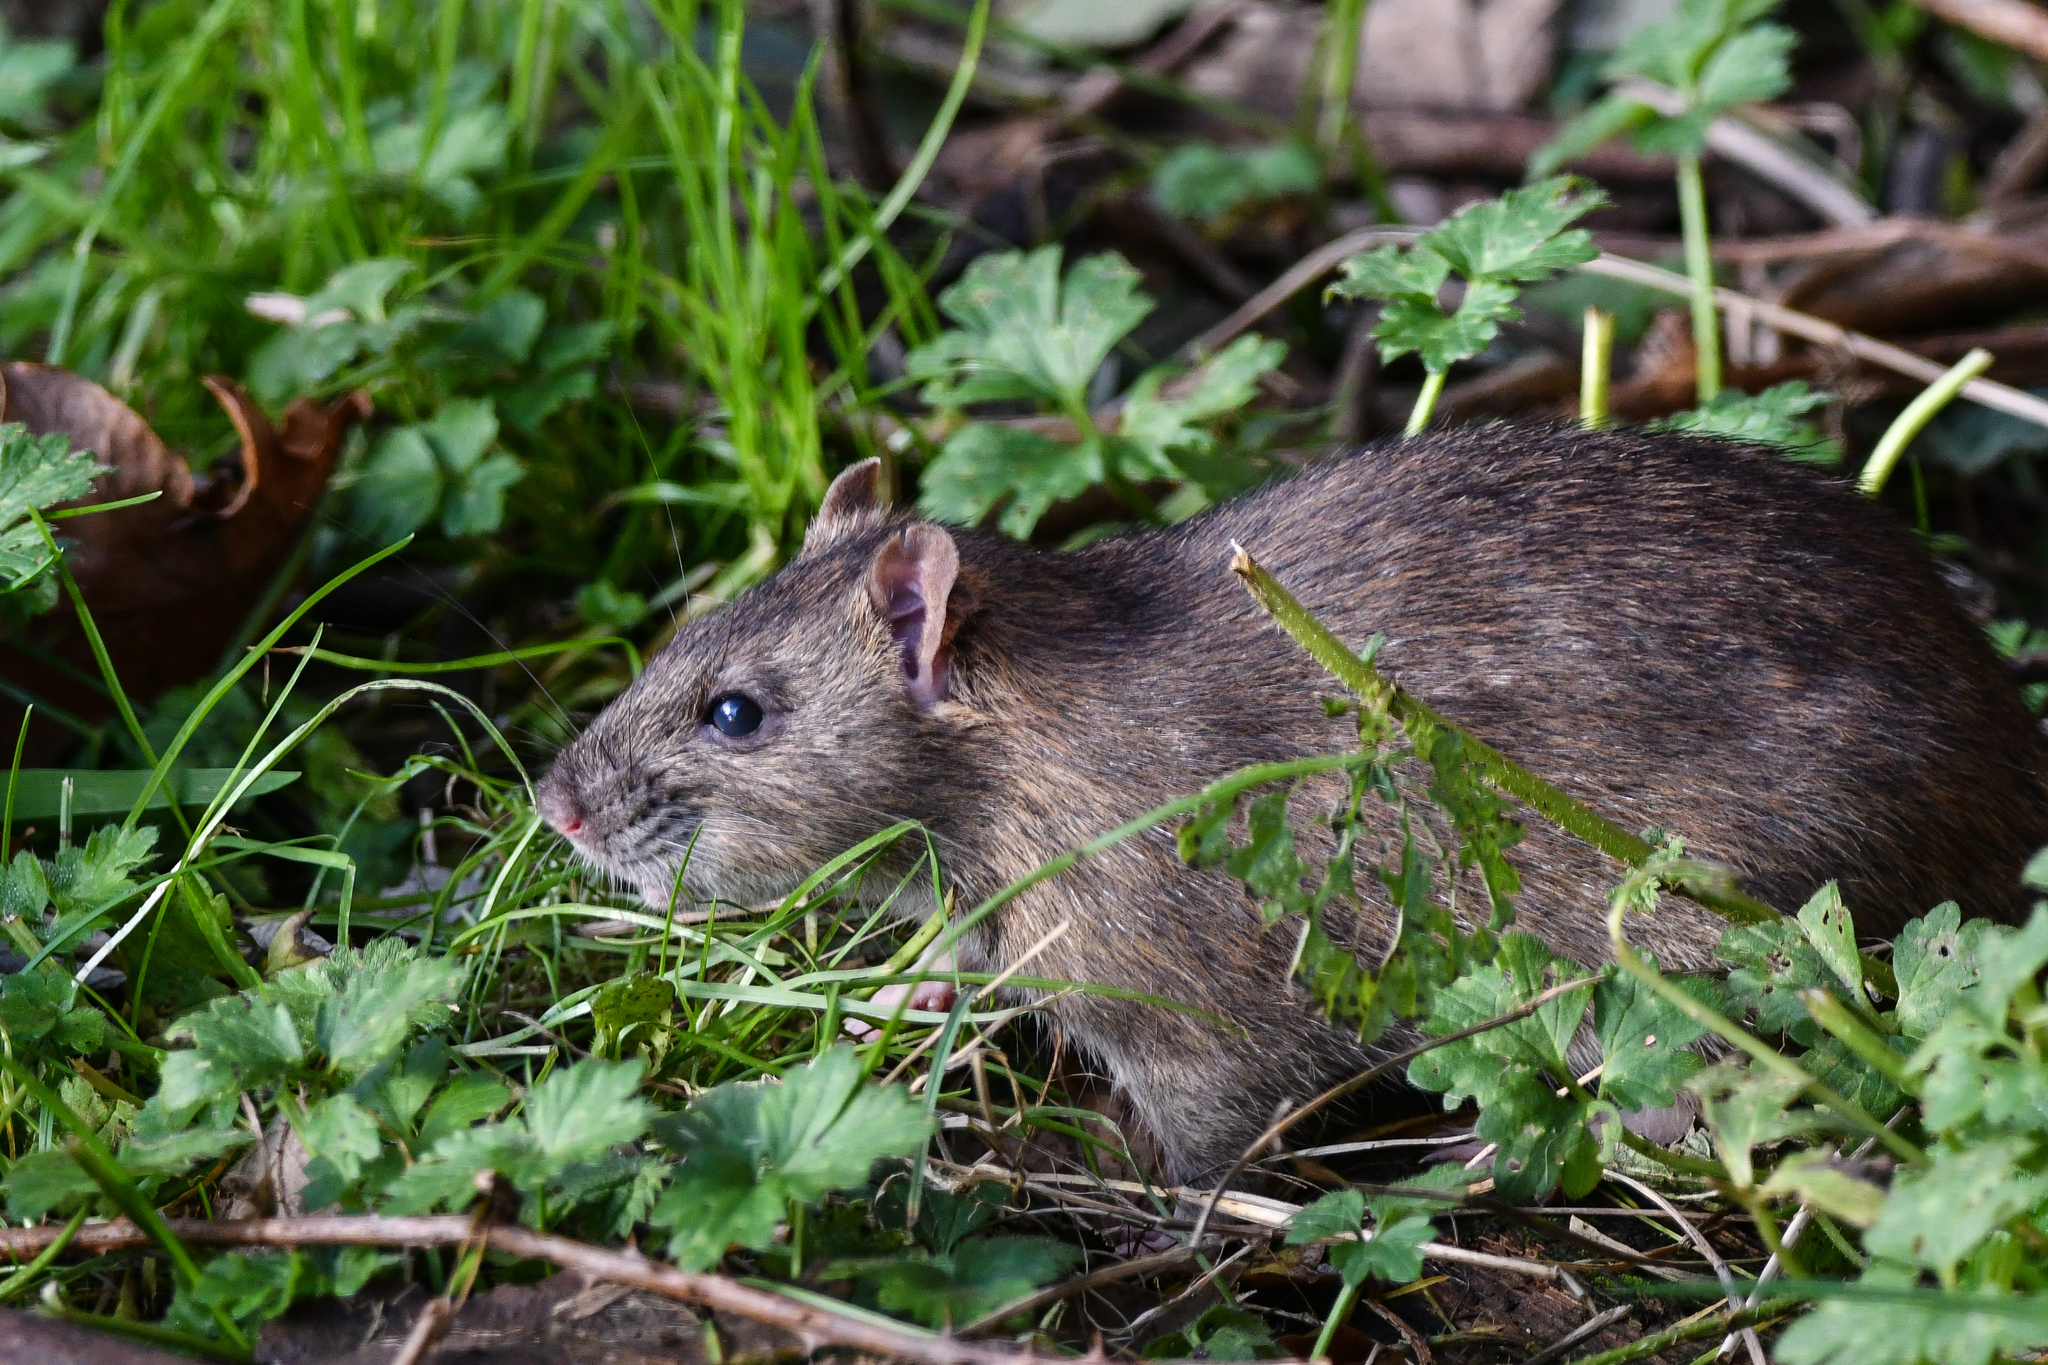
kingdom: Animalia
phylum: Chordata
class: Mammalia
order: Rodentia
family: Muridae
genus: Rattus
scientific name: Rattus norvegicus
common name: Brown rat
